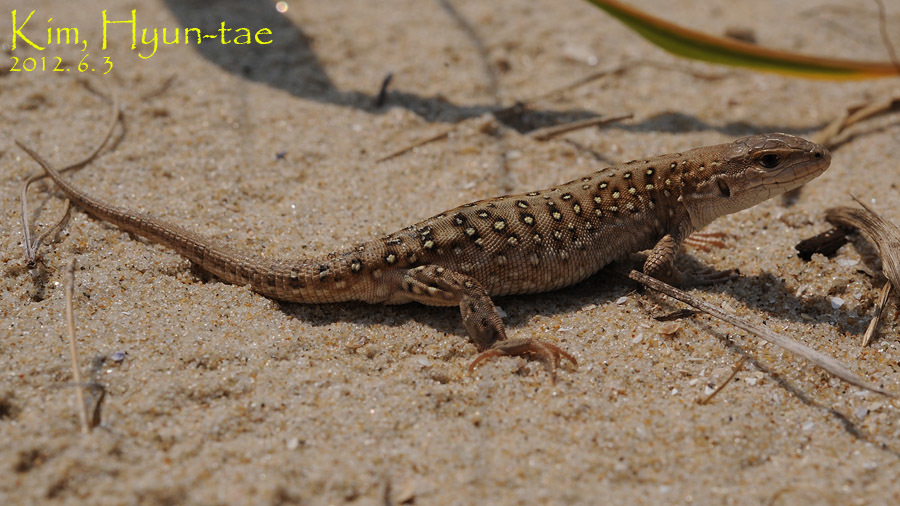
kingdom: Animalia
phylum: Chordata
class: Squamata
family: Lacertidae
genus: Eremias
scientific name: Eremias argus
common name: Mongolia racerunner
